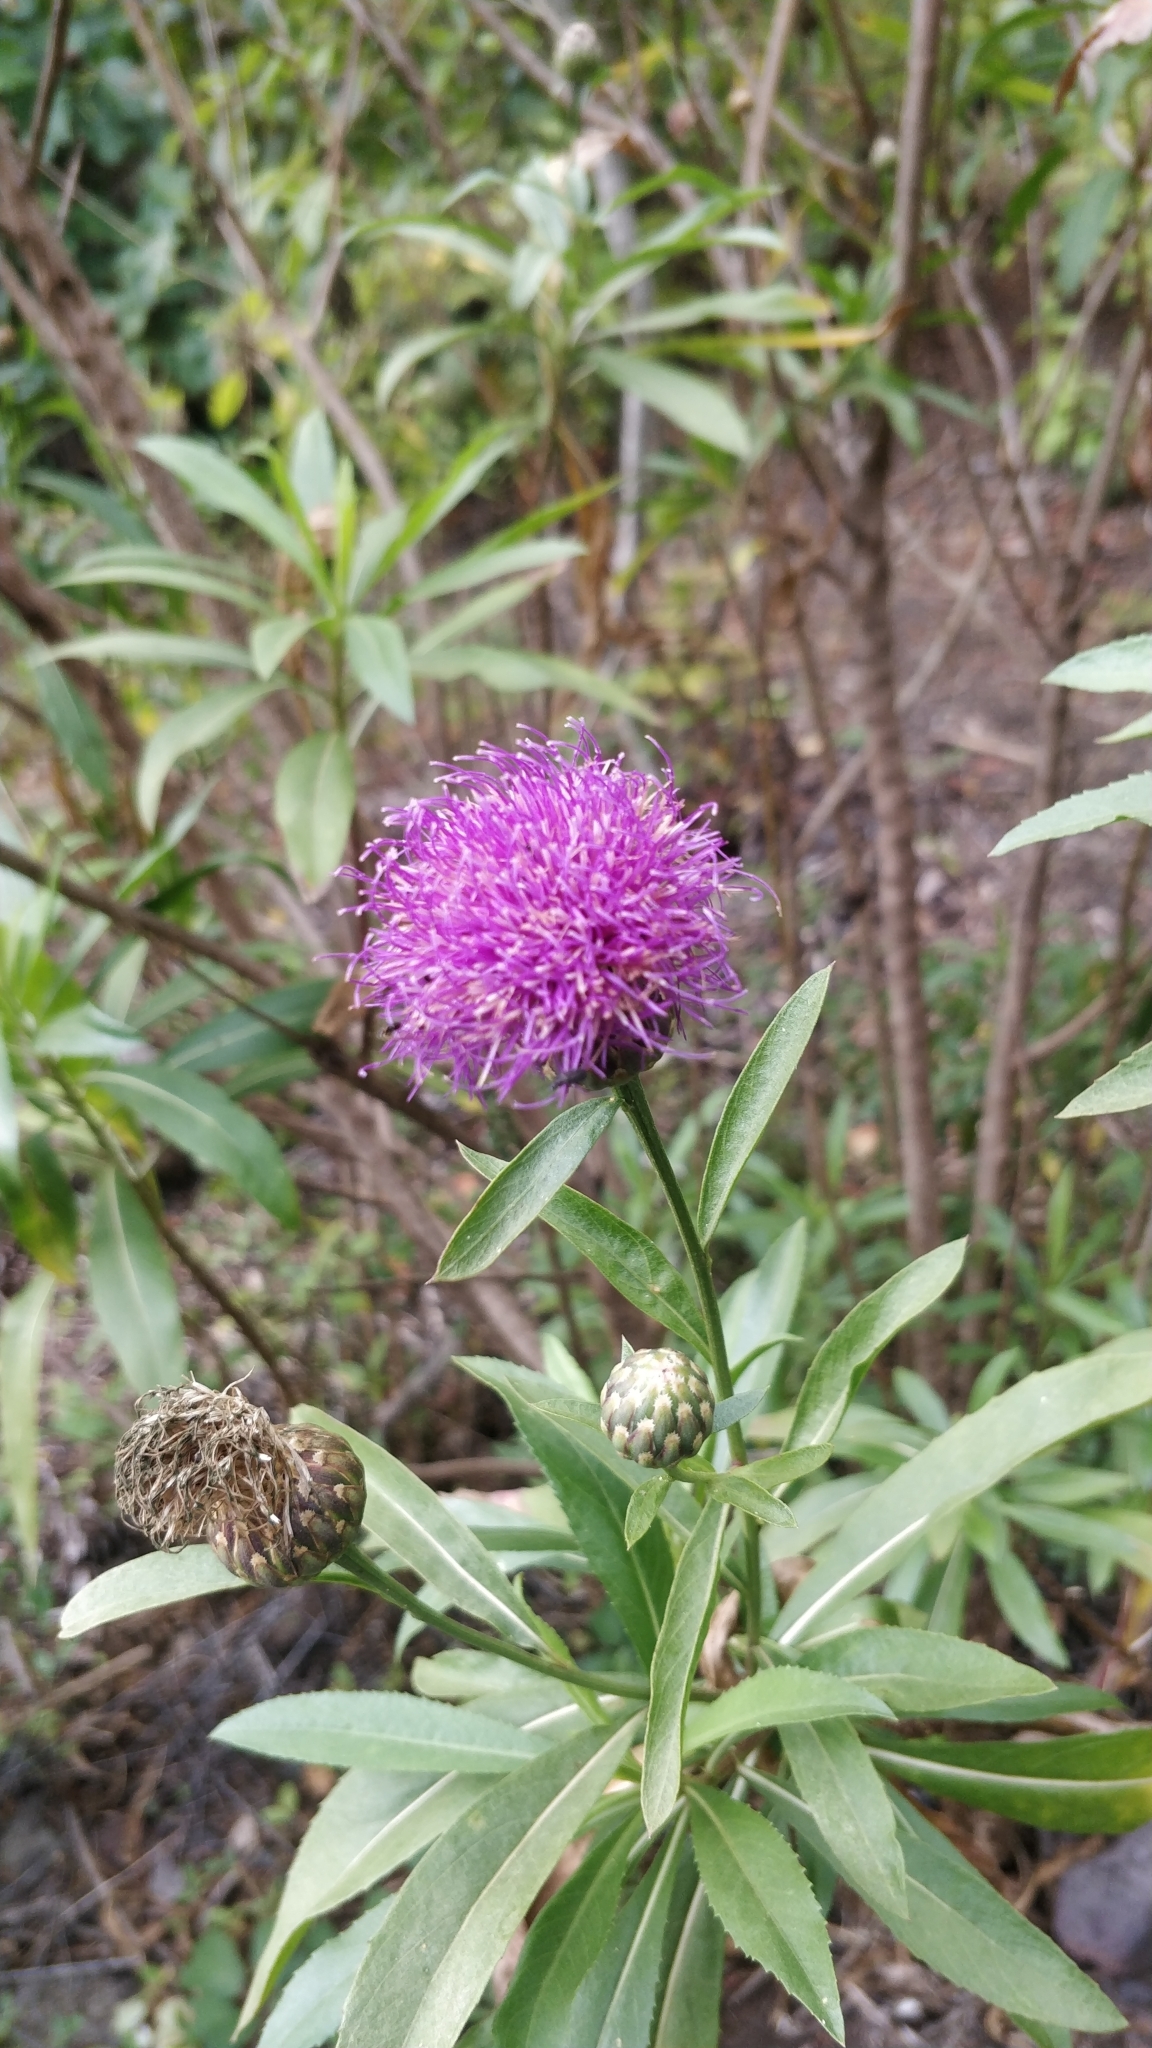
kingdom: Plantae
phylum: Tracheophyta
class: Magnoliopsida
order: Asterales
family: Asteraceae
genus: Cheirolophus
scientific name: Cheirolophus metlesicsii
